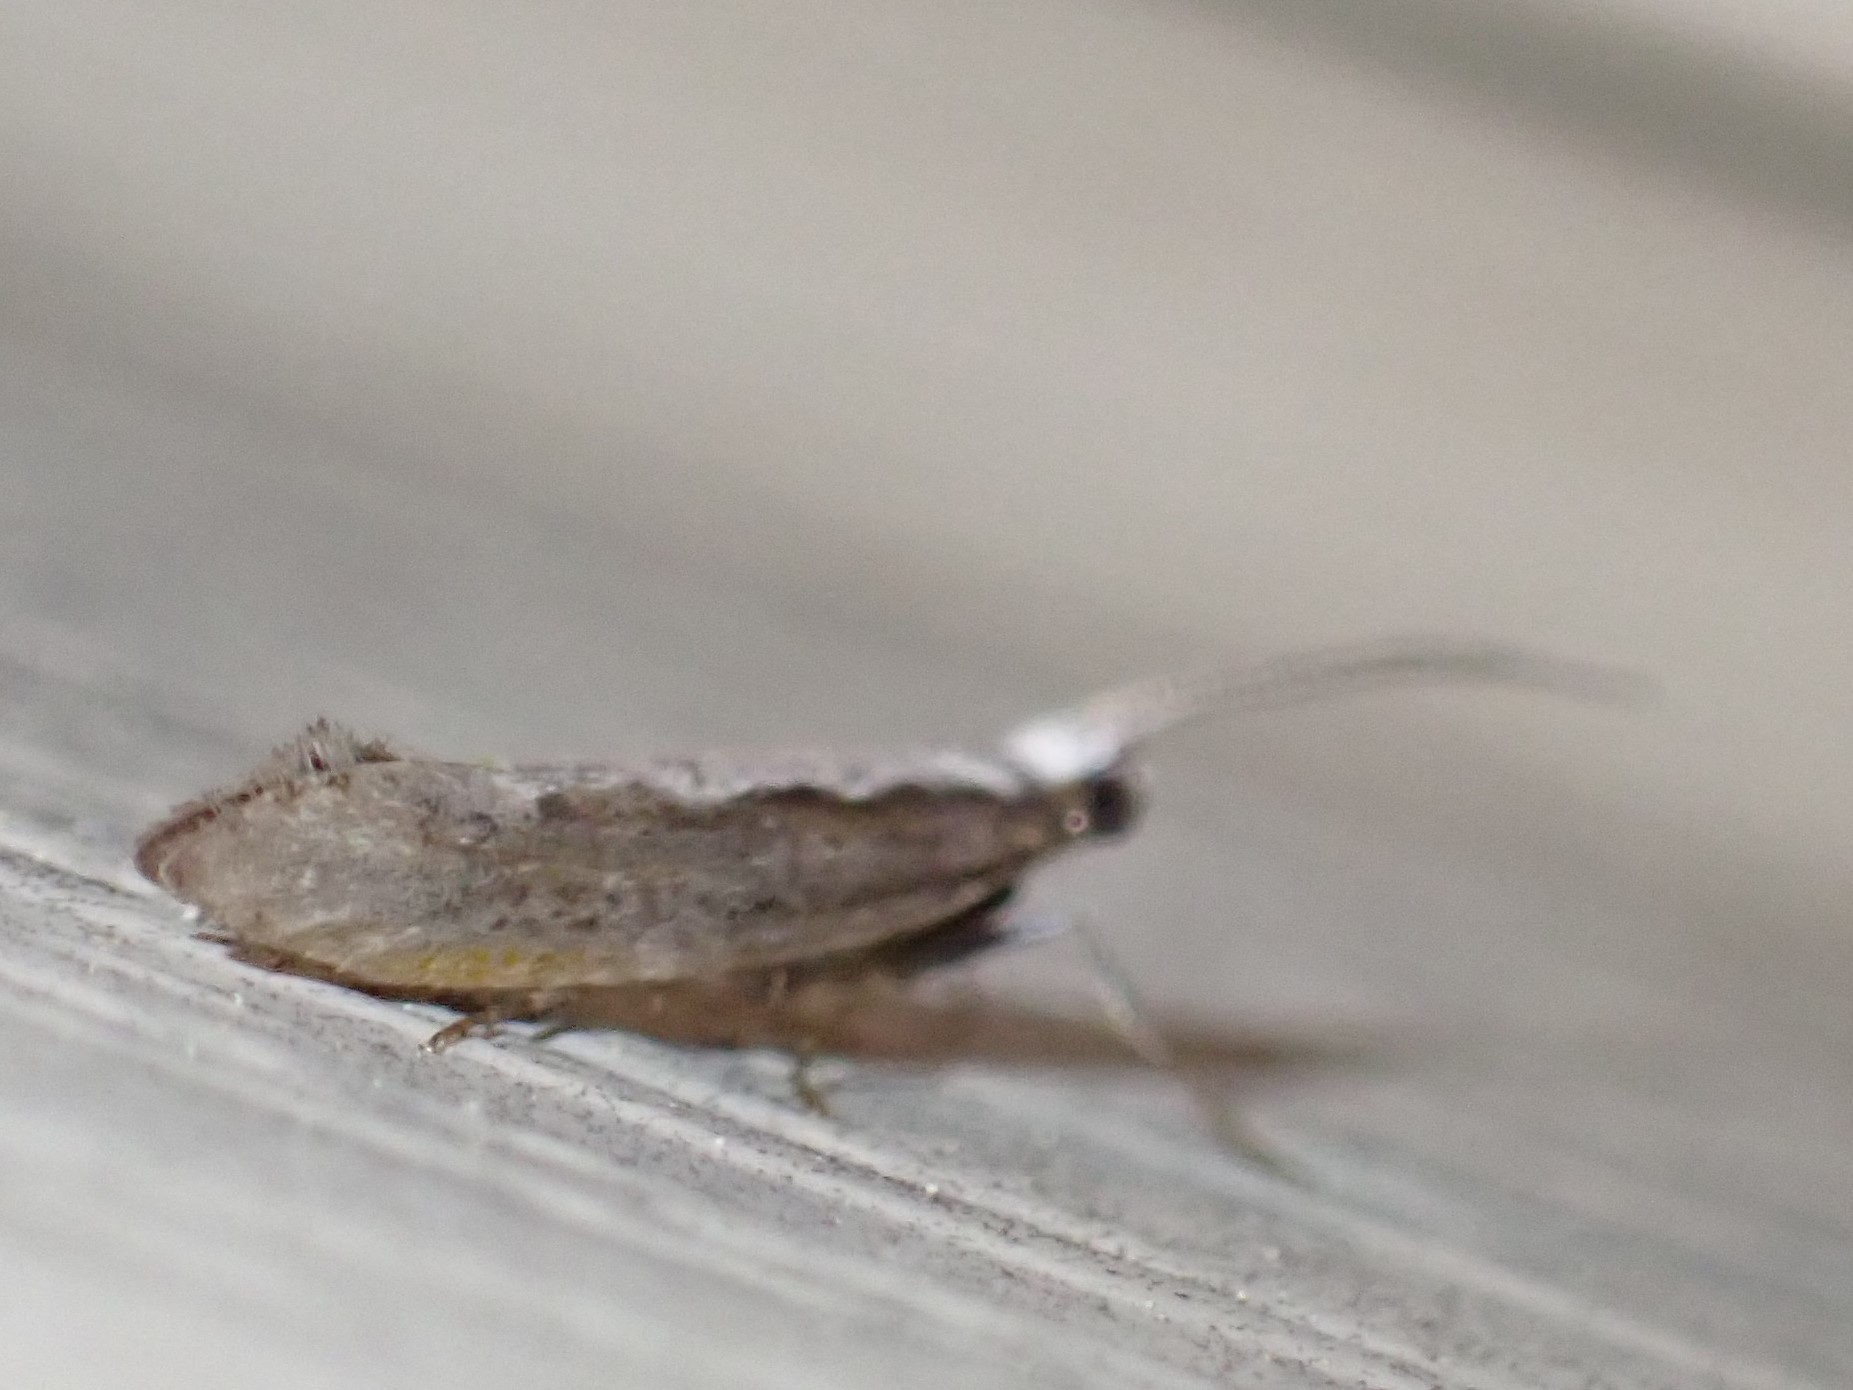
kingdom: Animalia
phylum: Arthropoda
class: Insecta
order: Lepidoptera
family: Plutellidae
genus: Plutella
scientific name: Plutella xylostella
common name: Diamond-back moth
